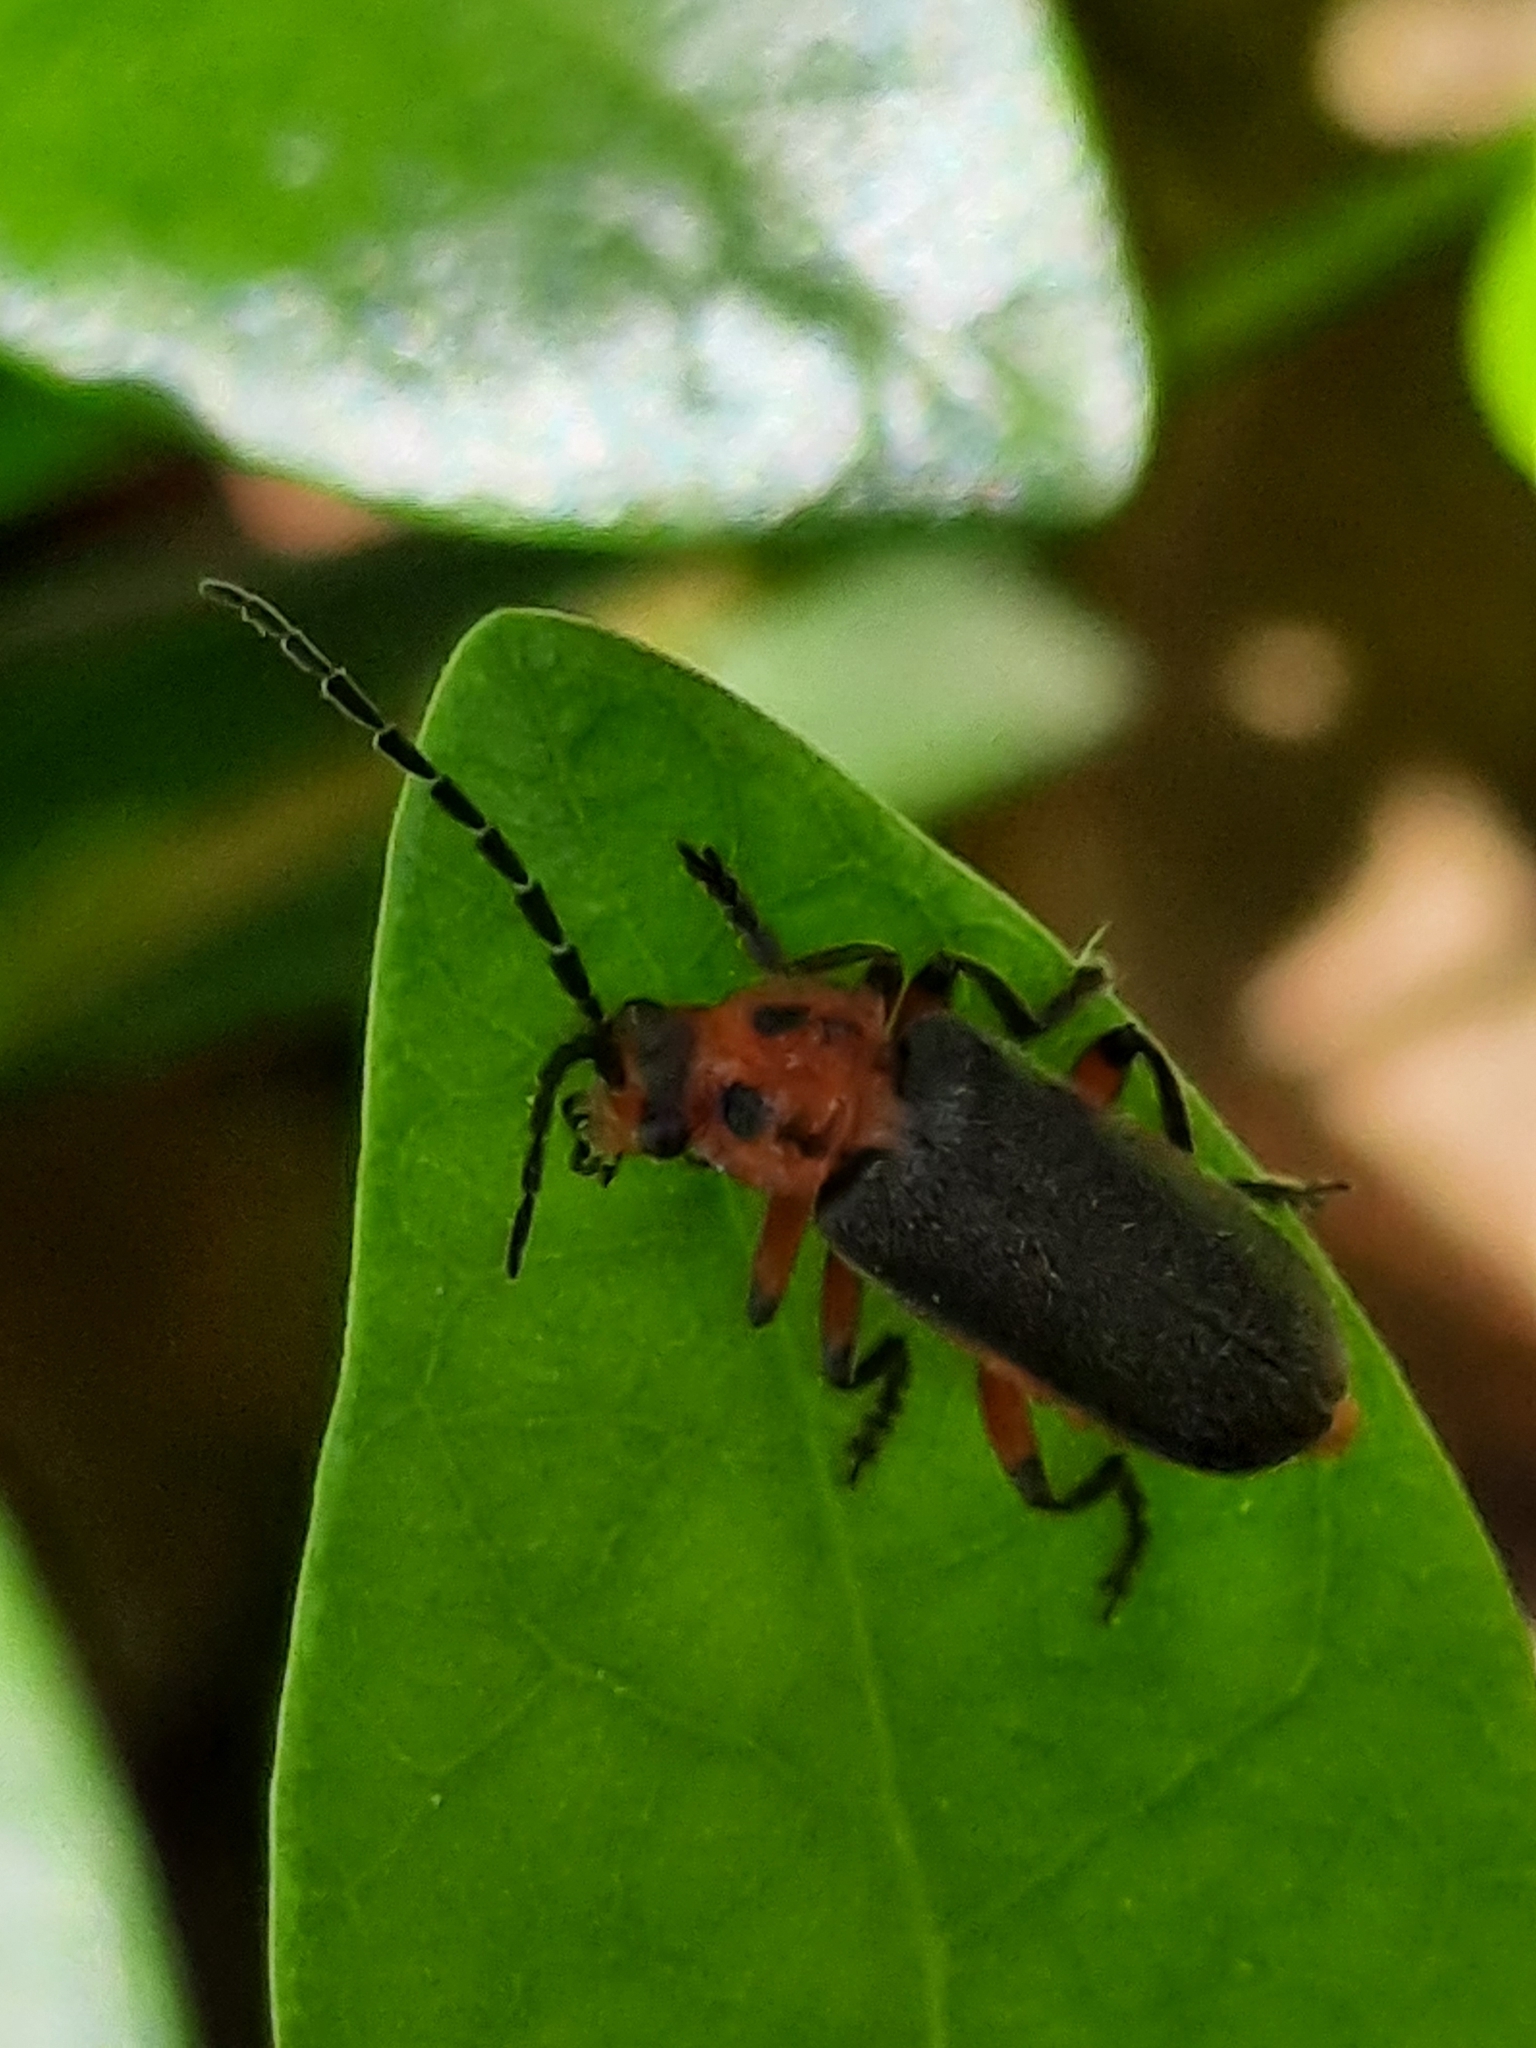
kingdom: Animalia
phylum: Arthropoda
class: Insecta
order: Coleoptera
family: Cantharidae
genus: Atalantycha
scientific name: Atalantycha bilineata
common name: Two-lined leatherwing
